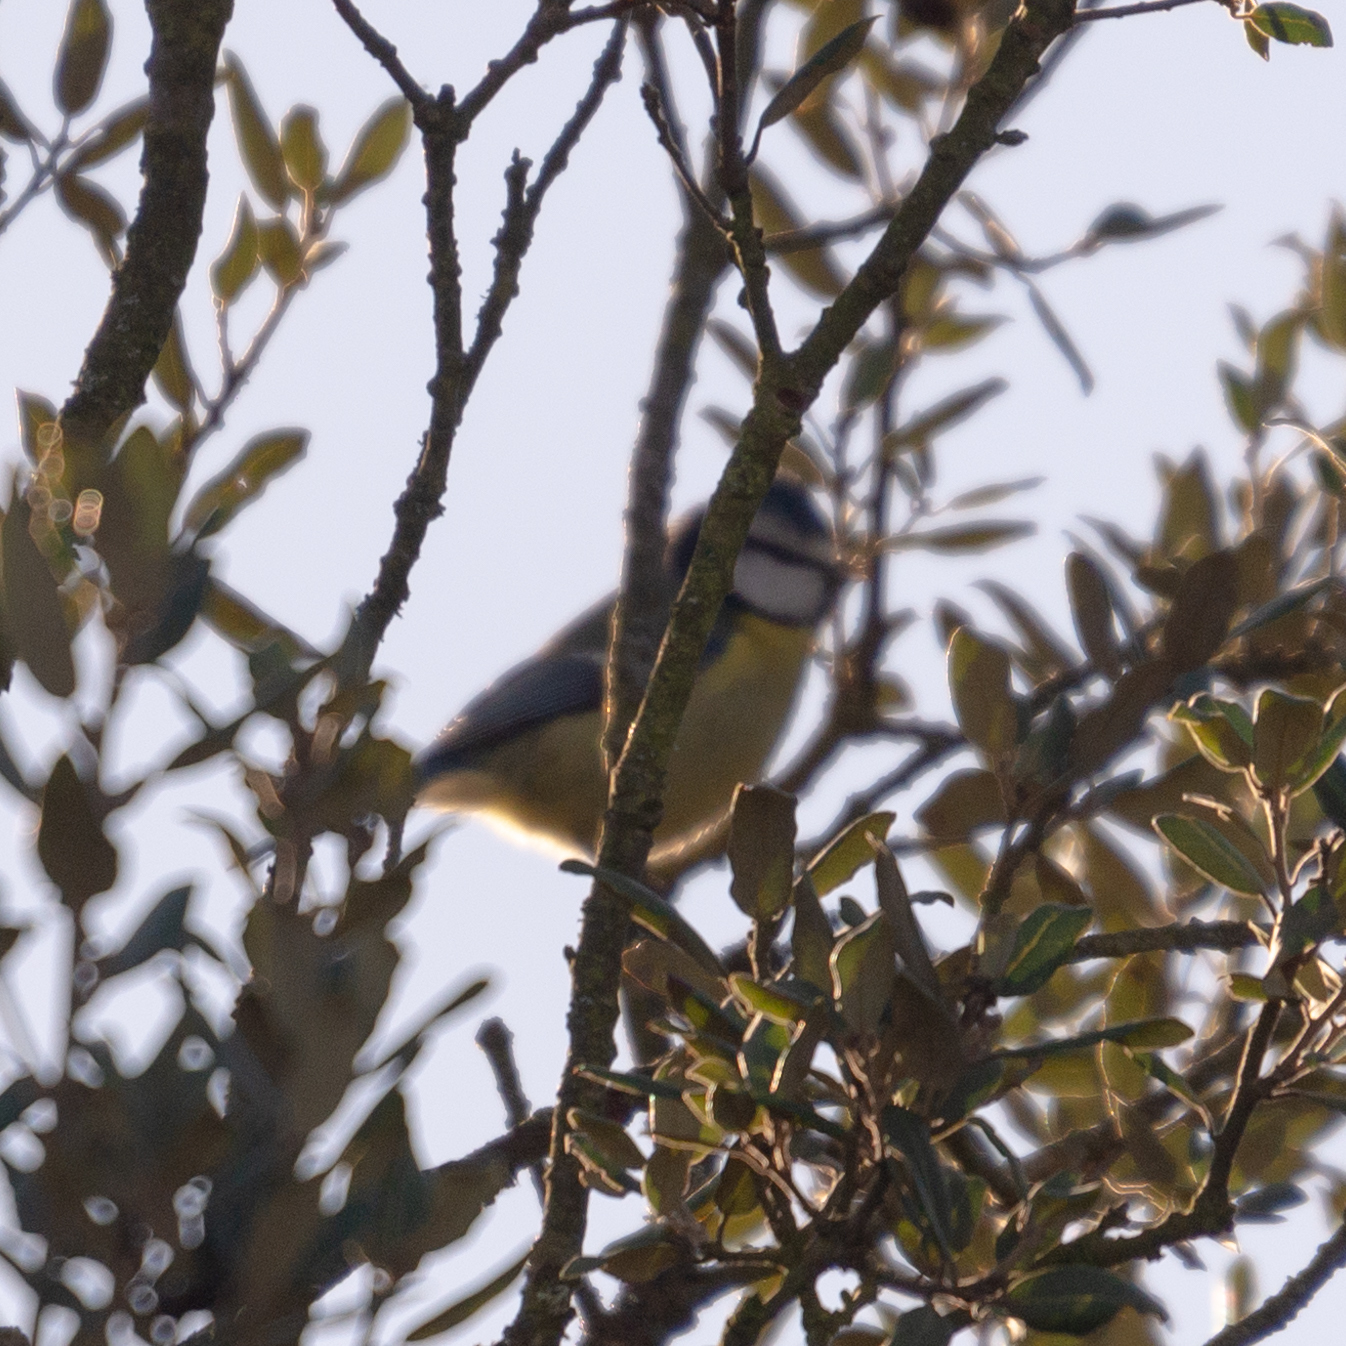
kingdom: Animalia
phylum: Chordata
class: Aves
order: Passeriformes
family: Paridae
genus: Cyanistes
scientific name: Cyanistes caeruleus
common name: Eurasian blue tit
